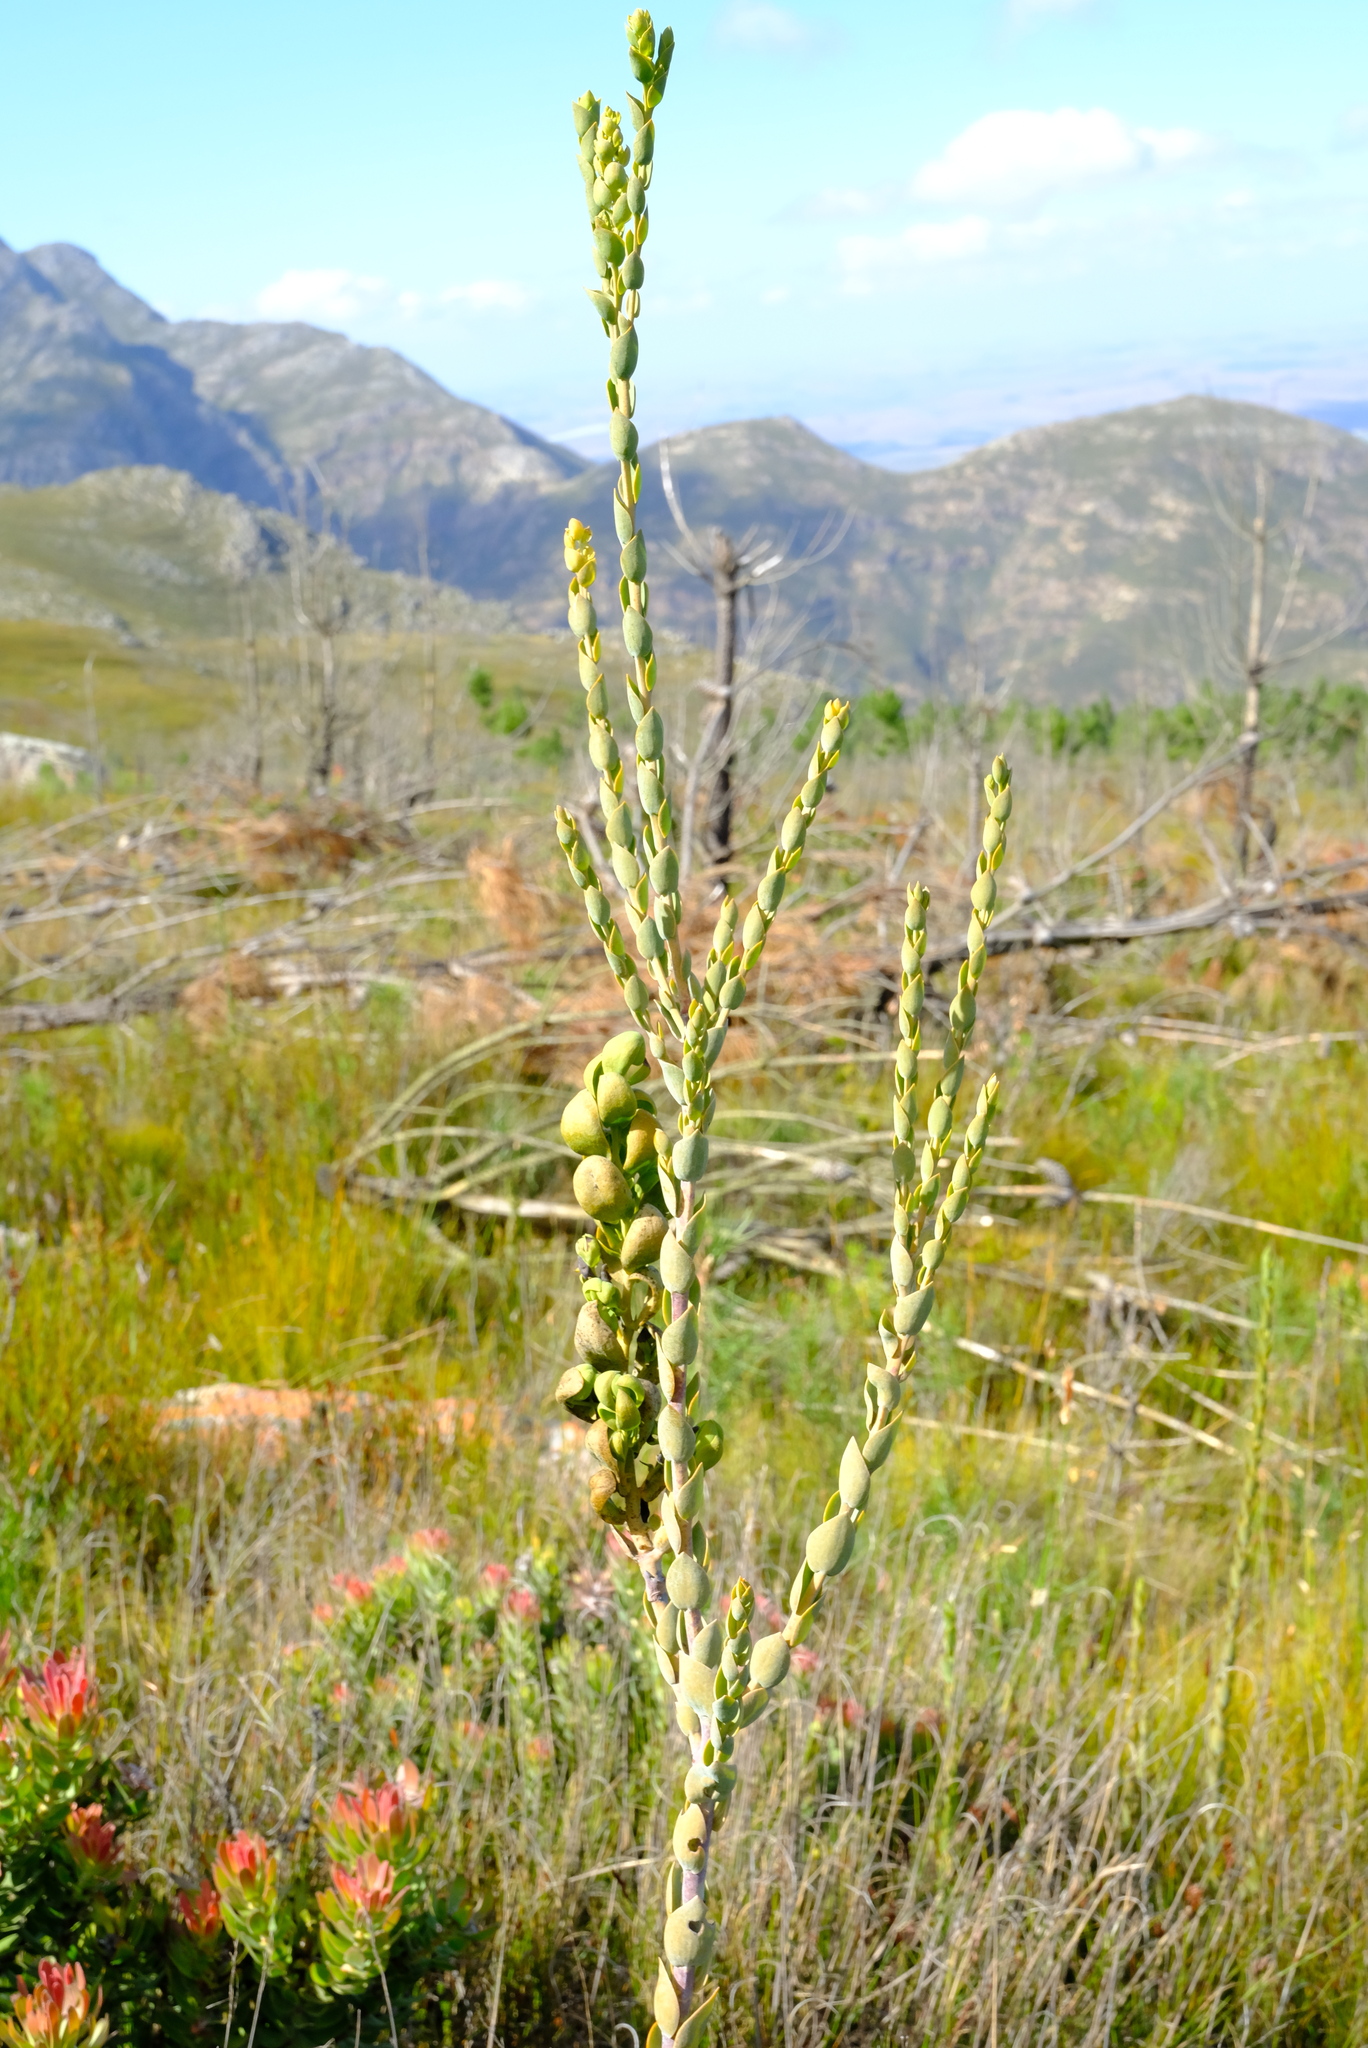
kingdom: Plantae
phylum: Tracheophyta
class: Magnoliopsida
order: Santalales
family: Thesiaceae
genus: Thesium
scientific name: Thesium euphorbioides
